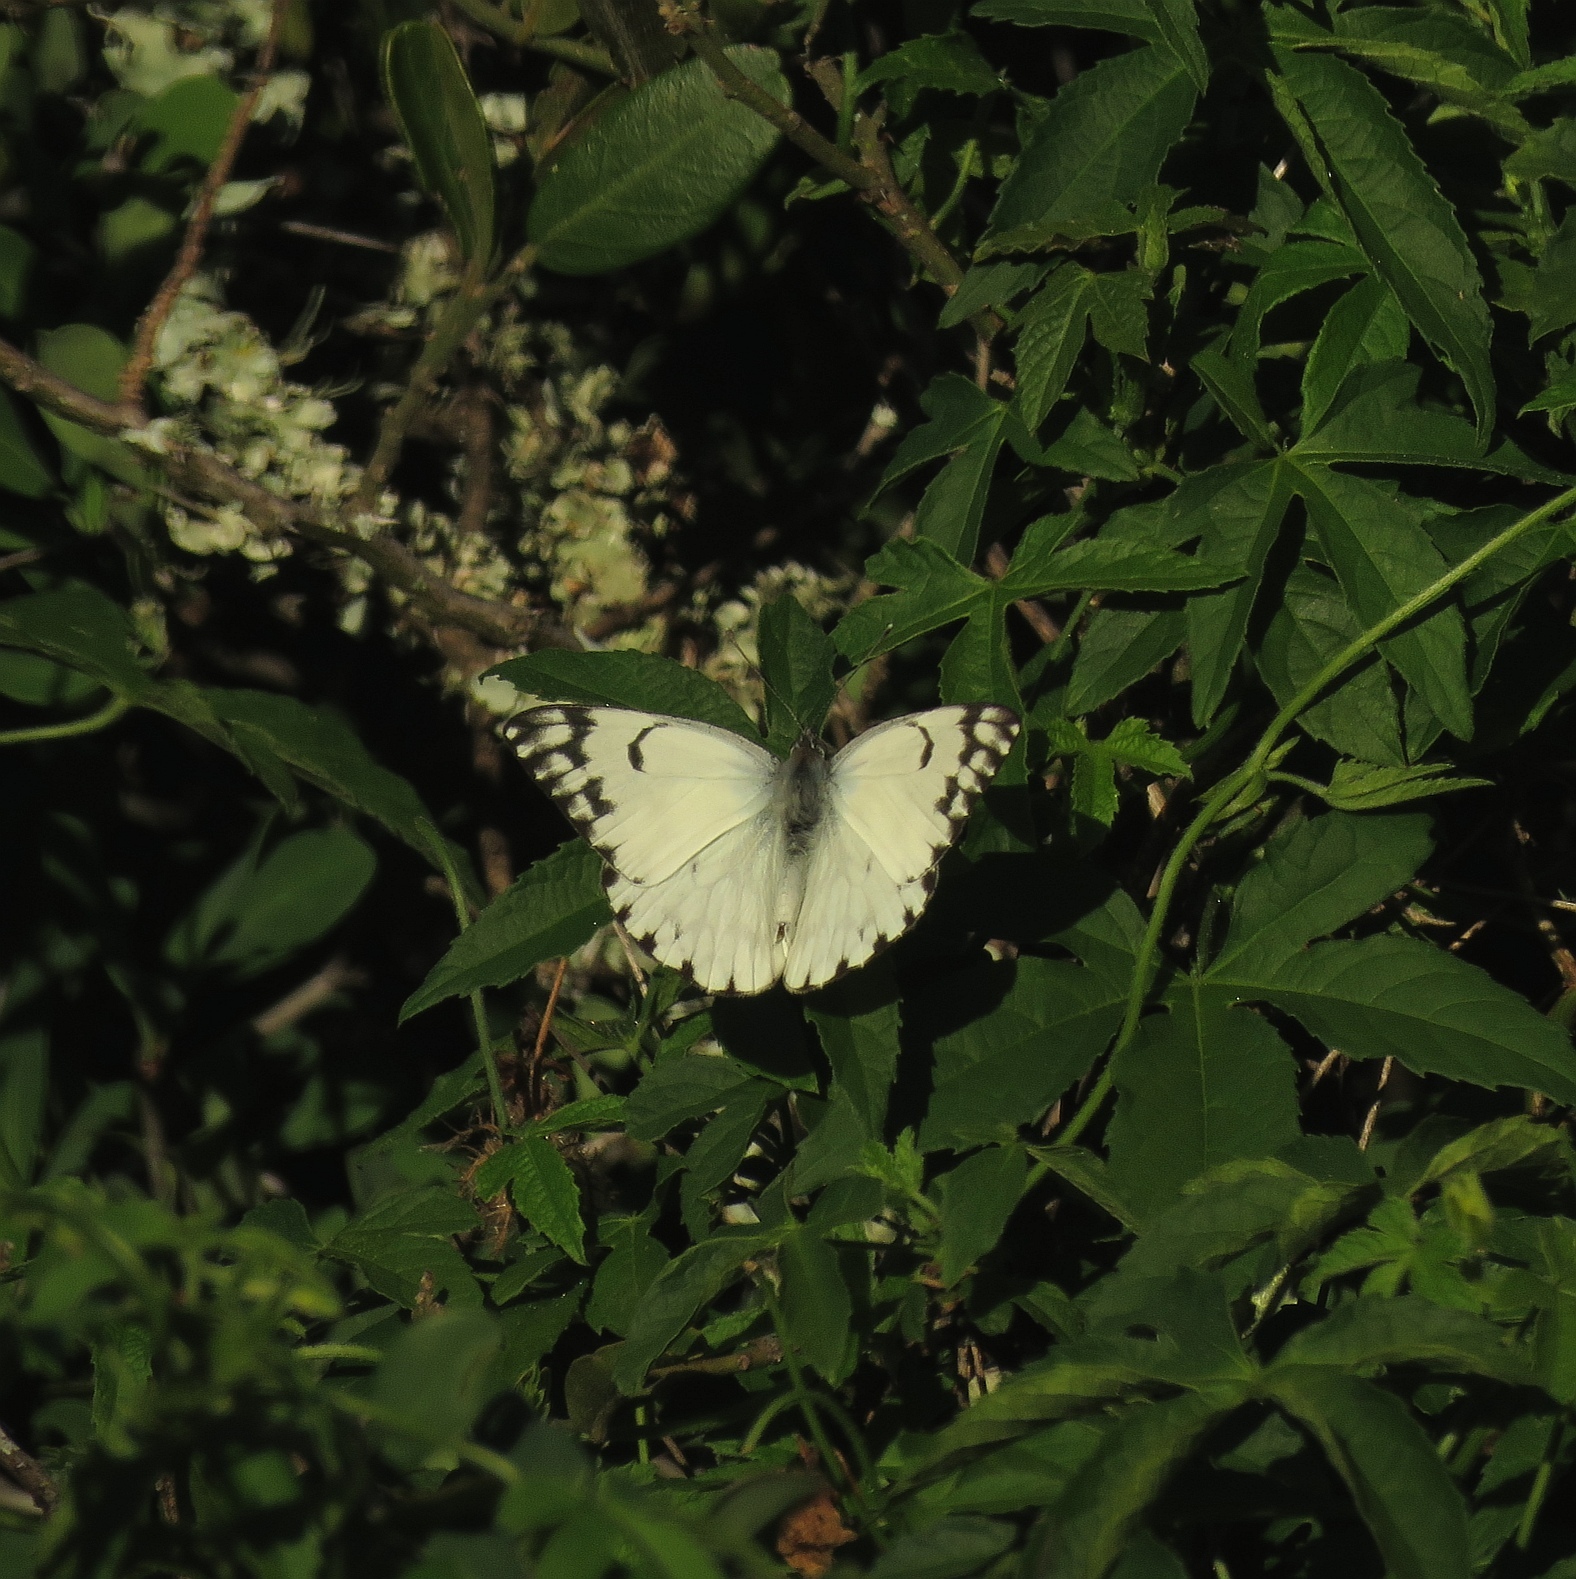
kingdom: Animalia
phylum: Arthropoda
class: Insecta
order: Lepidoptera
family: Pieridae
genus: Belenois
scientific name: Belenois gidica
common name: Pointed caper white
